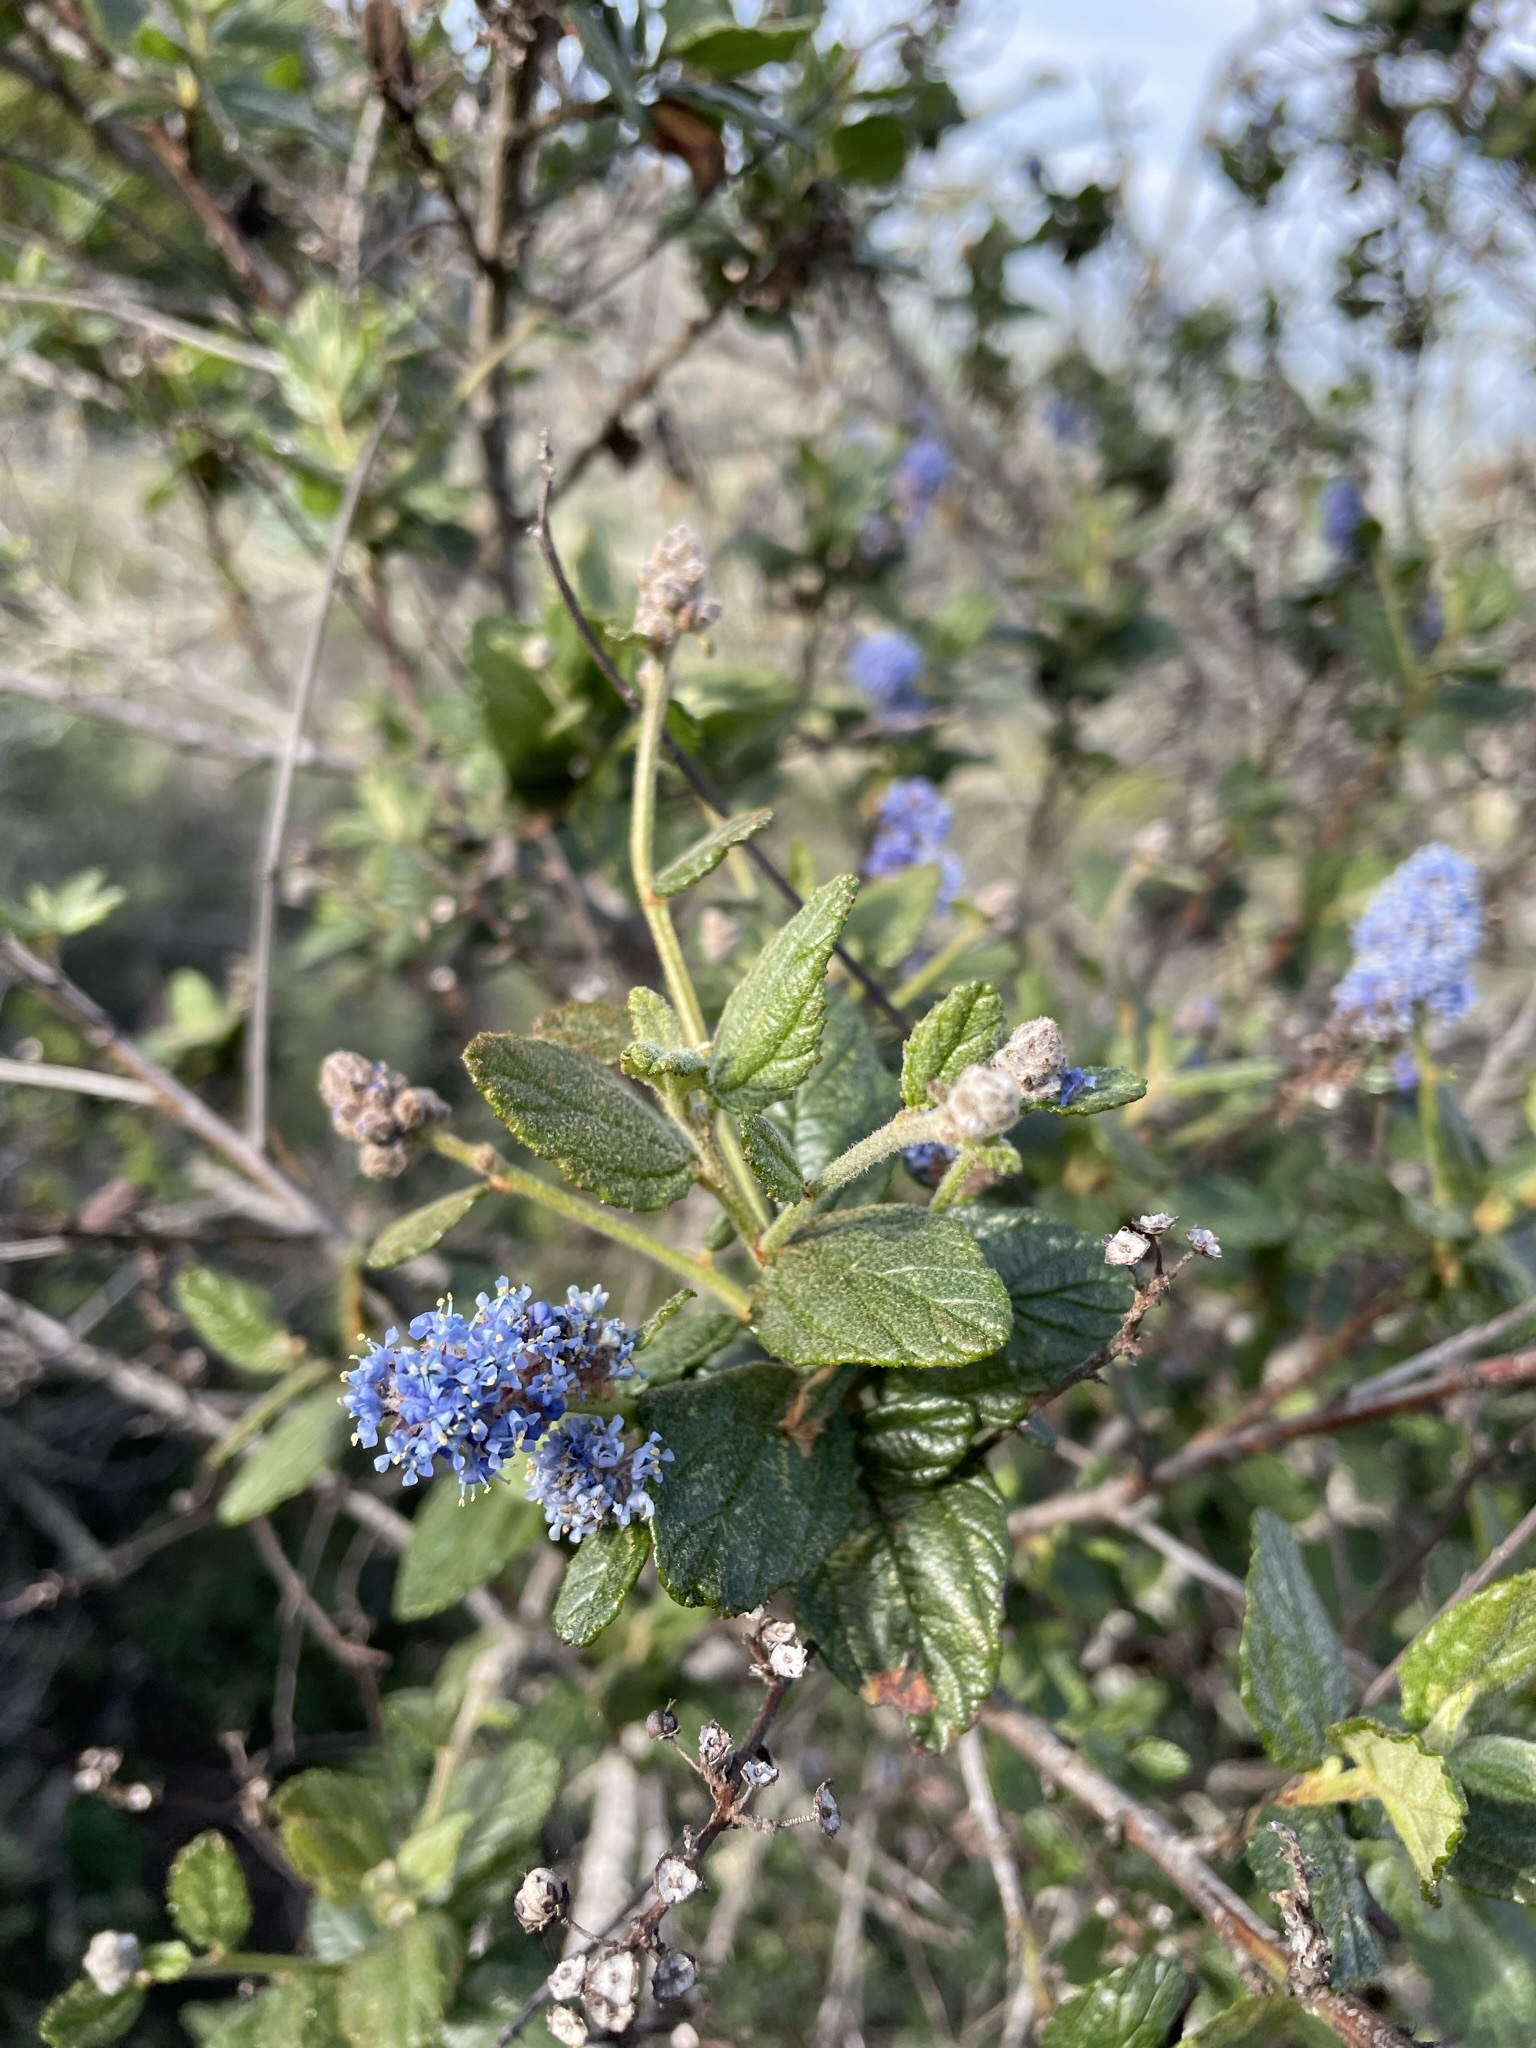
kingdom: Plantae
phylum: Tracheophyta
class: Magnoliopsida
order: Rosales
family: Rhamnaceae
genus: Ceanothus
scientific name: Ceanothus thyrsiflorus
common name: California-lilac
